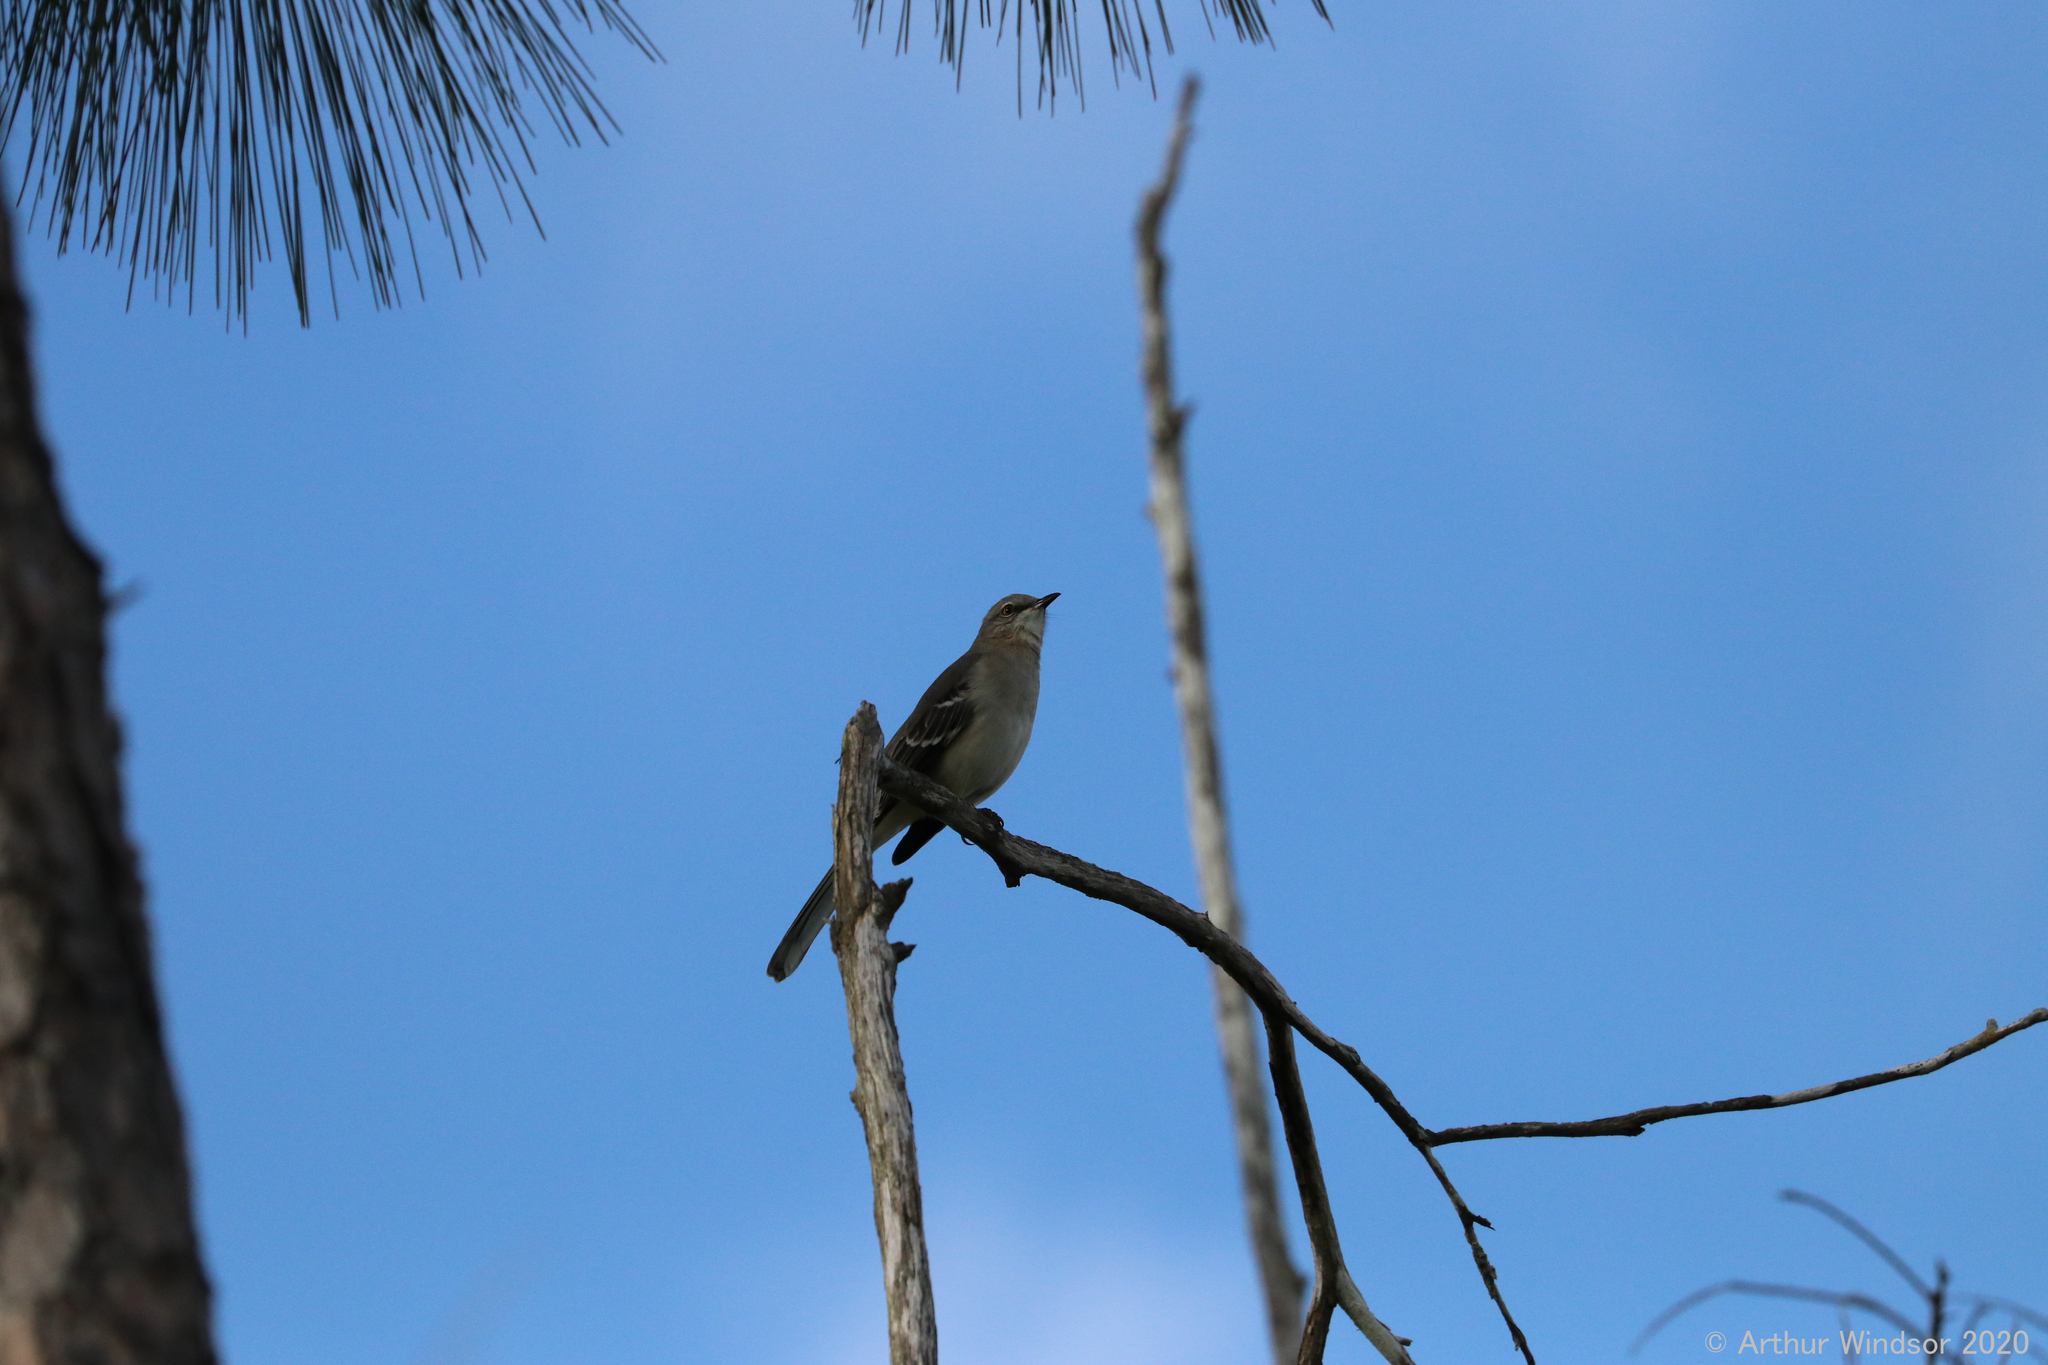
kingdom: Animalia
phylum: Chordata
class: Aves
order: Passeriformes
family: Mimidae
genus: Mimus
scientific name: Mimus polyglottos
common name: Northern mockingbird
